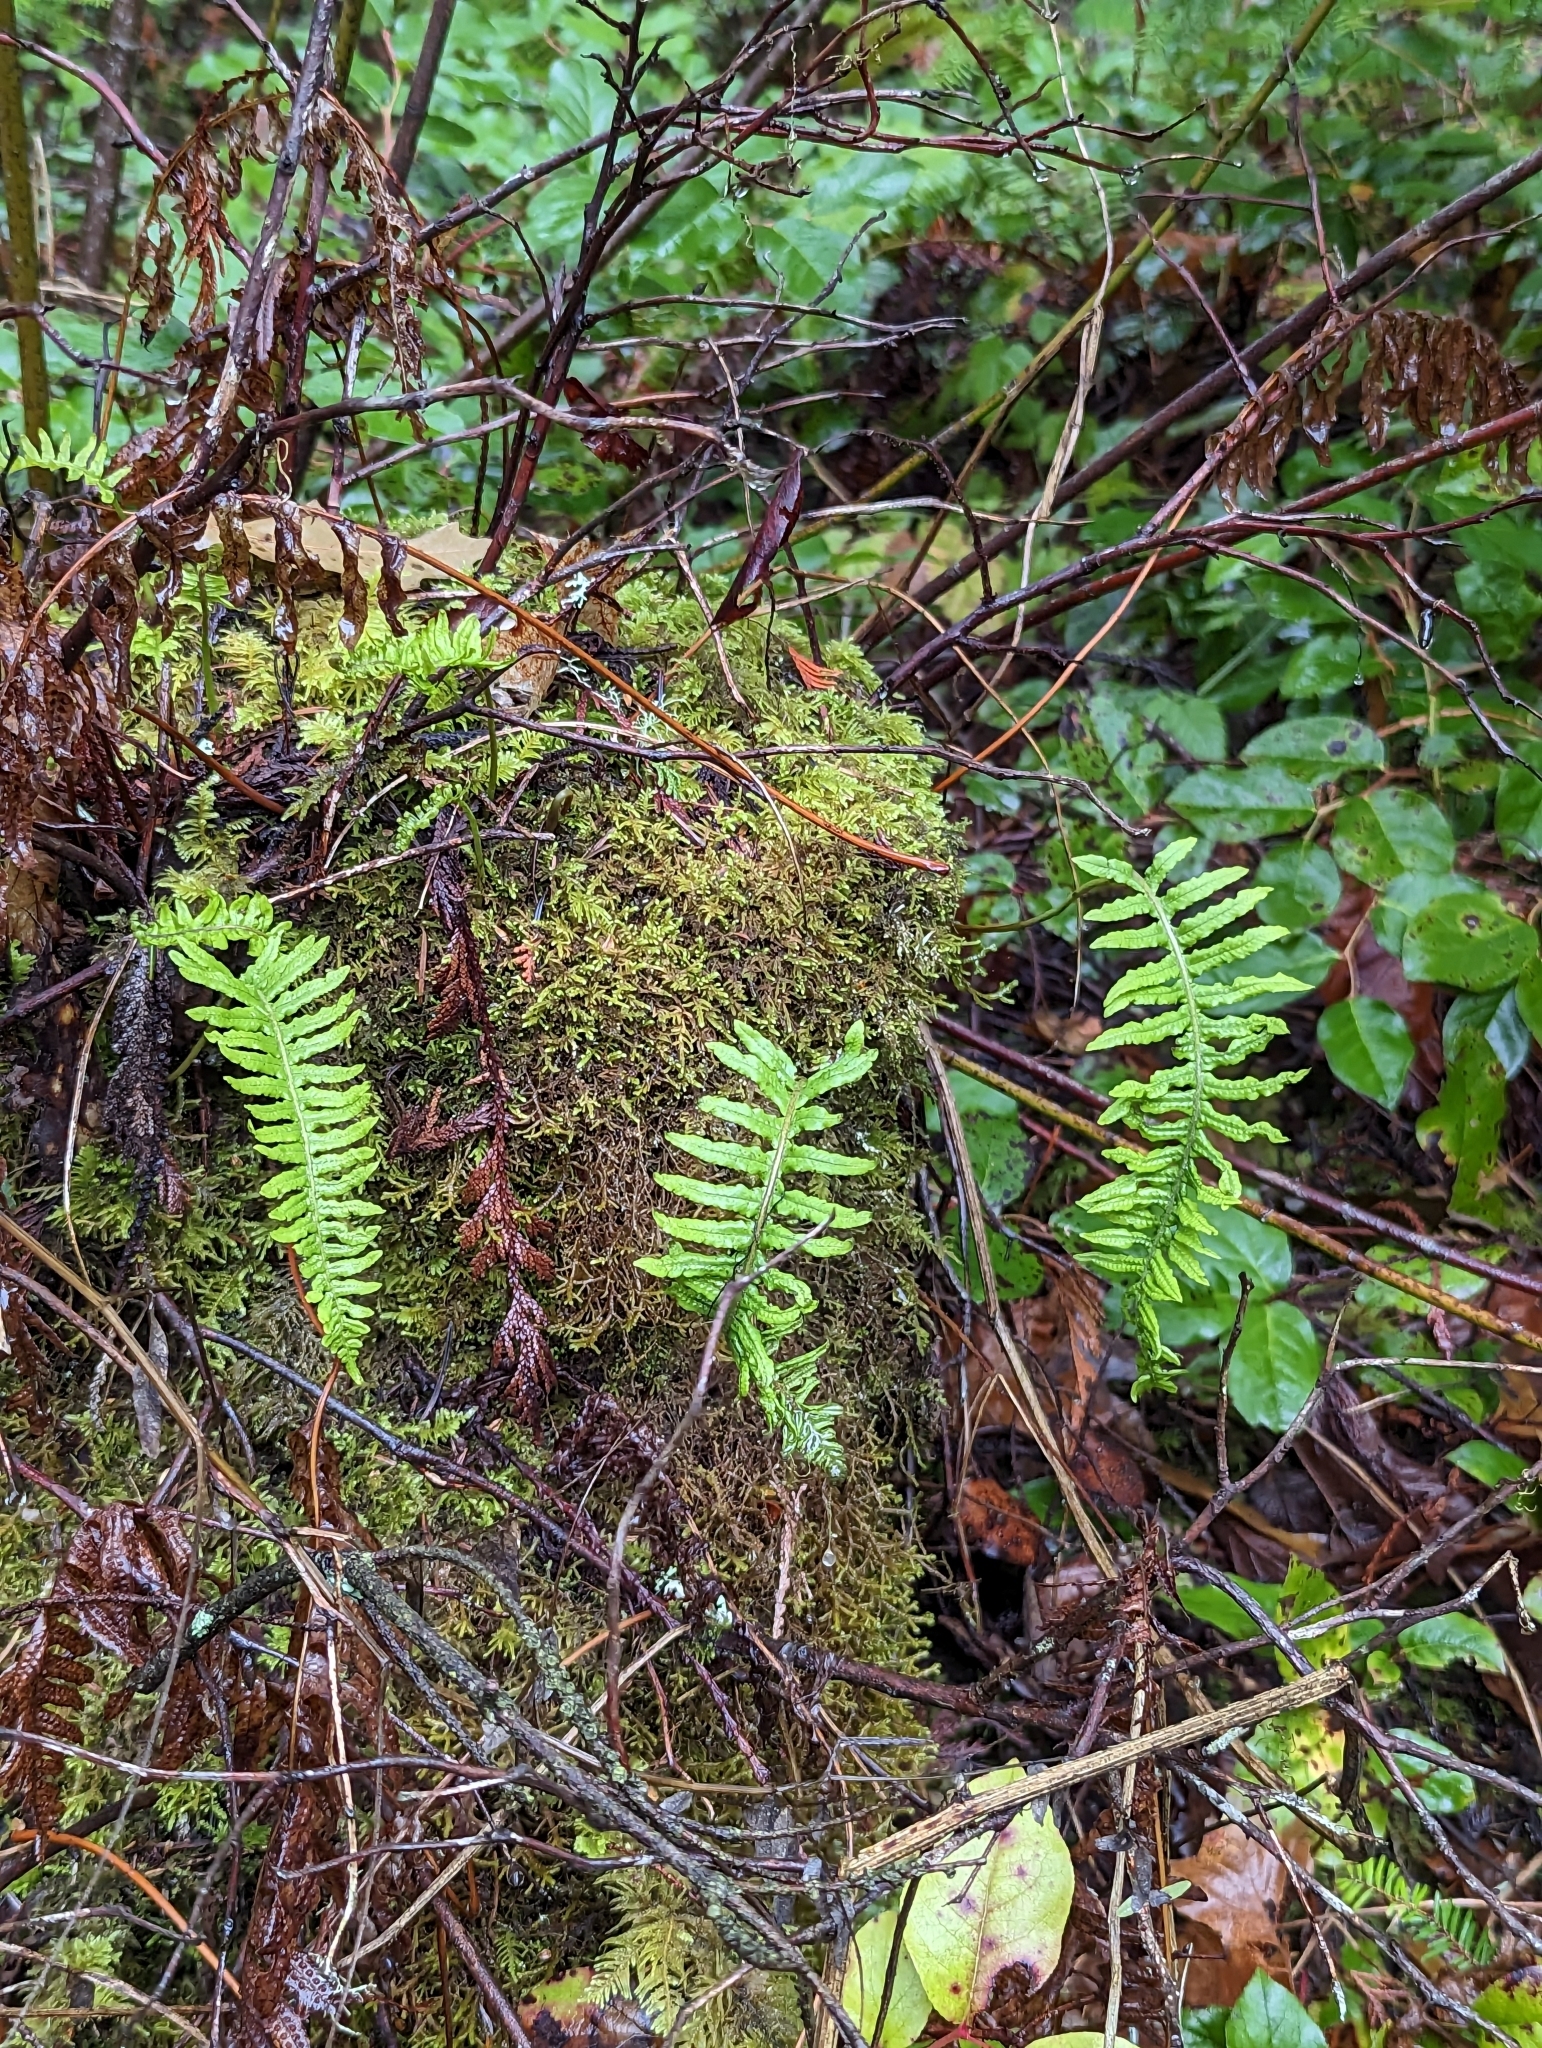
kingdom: Plantae
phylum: Tracheophyta
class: Polypodiopsida
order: Polypodiales
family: Polypodiaceae
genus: Polypodium
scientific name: Polypodium glycyrrhiza
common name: Licorice fern
